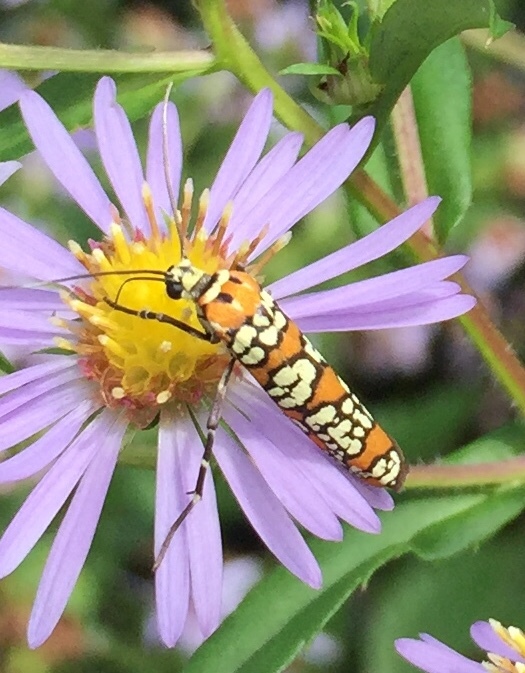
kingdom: Animalia
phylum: Arthropoda
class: Insecta
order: Lepidoptera
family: Attevidae
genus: Atteva
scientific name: Atteva punctella
